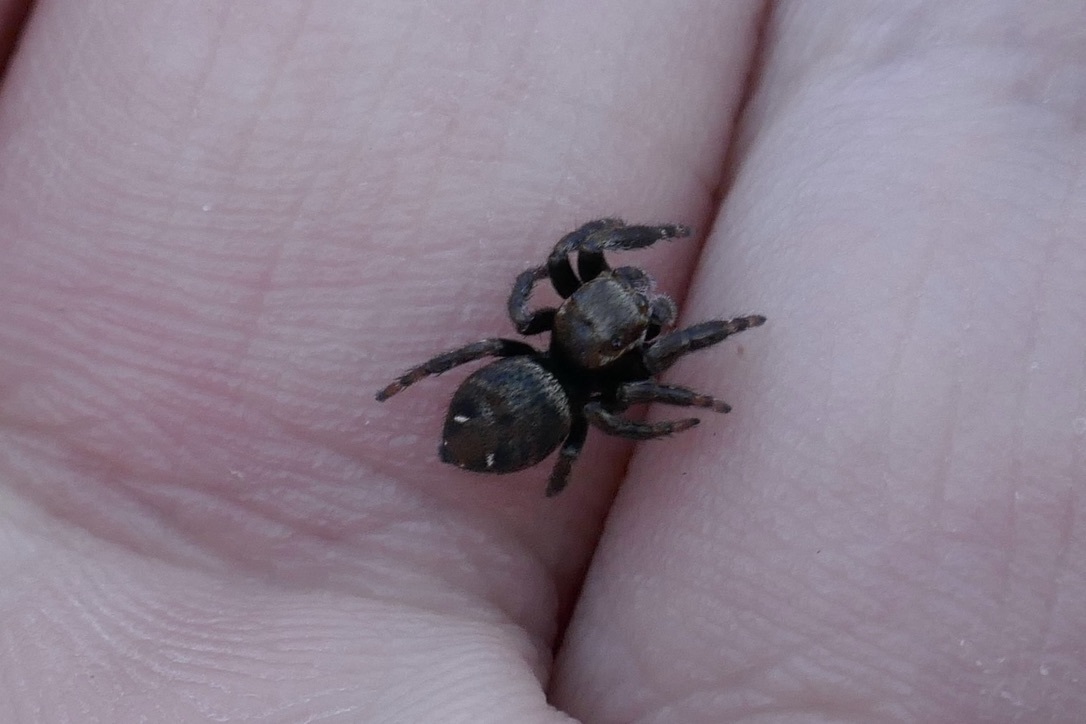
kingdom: Animalia
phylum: Arthropoda
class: Arachnida
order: Araneae
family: Salticidae
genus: Evarcha
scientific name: Evarcha arcuata
